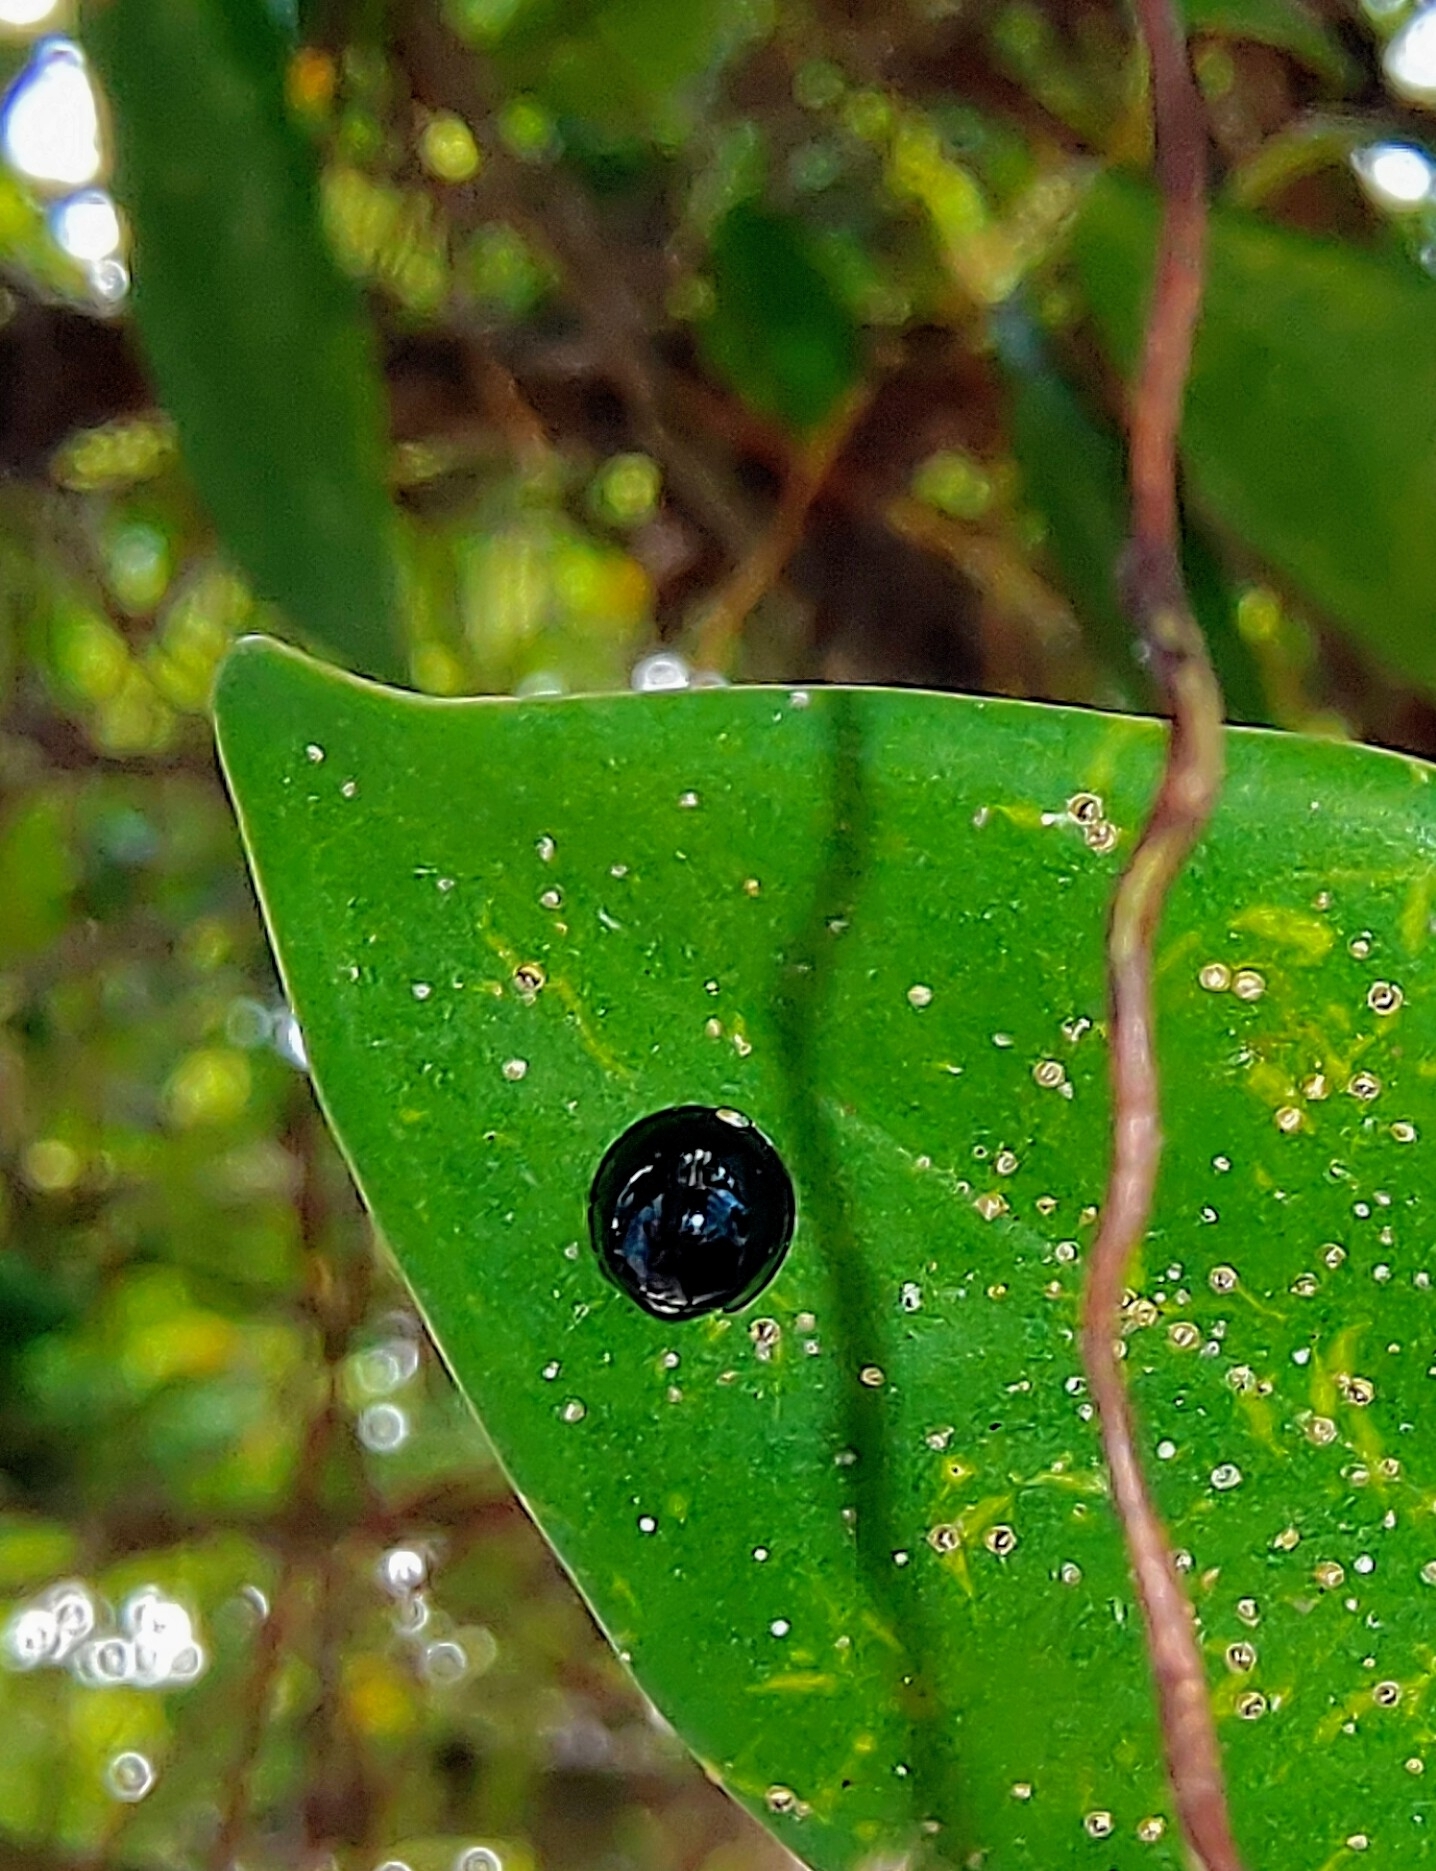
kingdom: Animalia
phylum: Arthropoda
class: Insecta
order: Coleoptera
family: Coccinellidae
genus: Chilocorus
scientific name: Chilocorus nigritus
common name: Ladybird beetle
